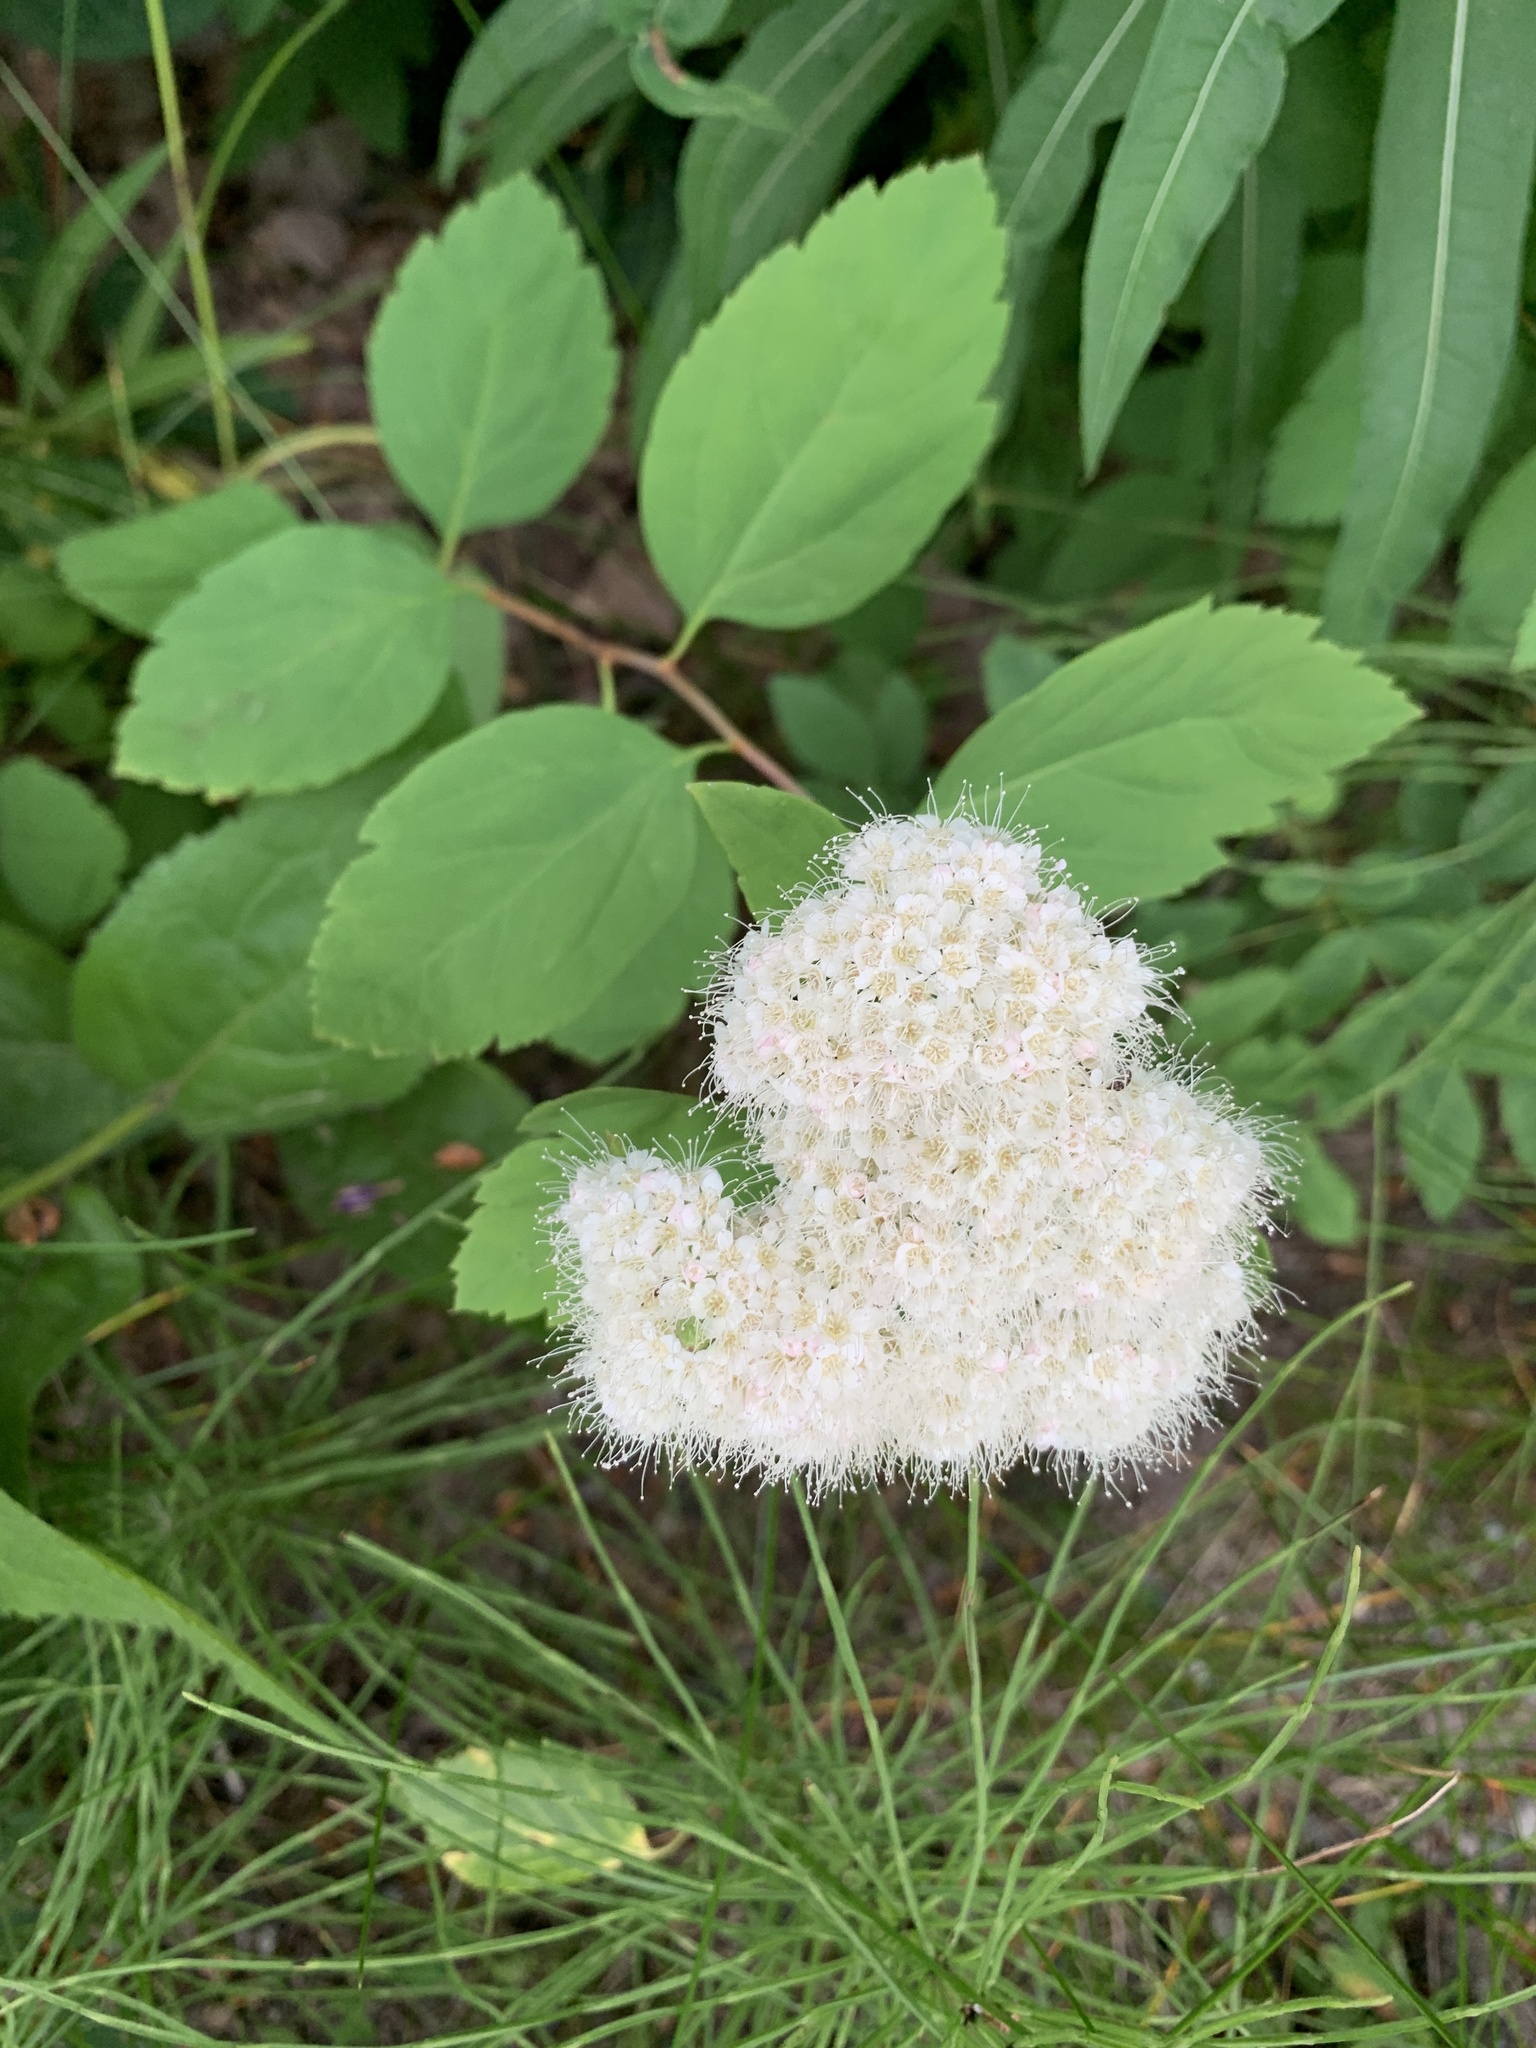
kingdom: Plantae
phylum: Tracheophyta
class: Magnoliopsida
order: Rosales
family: Rosaceae
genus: Spiraea
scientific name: Spiraea lucida
